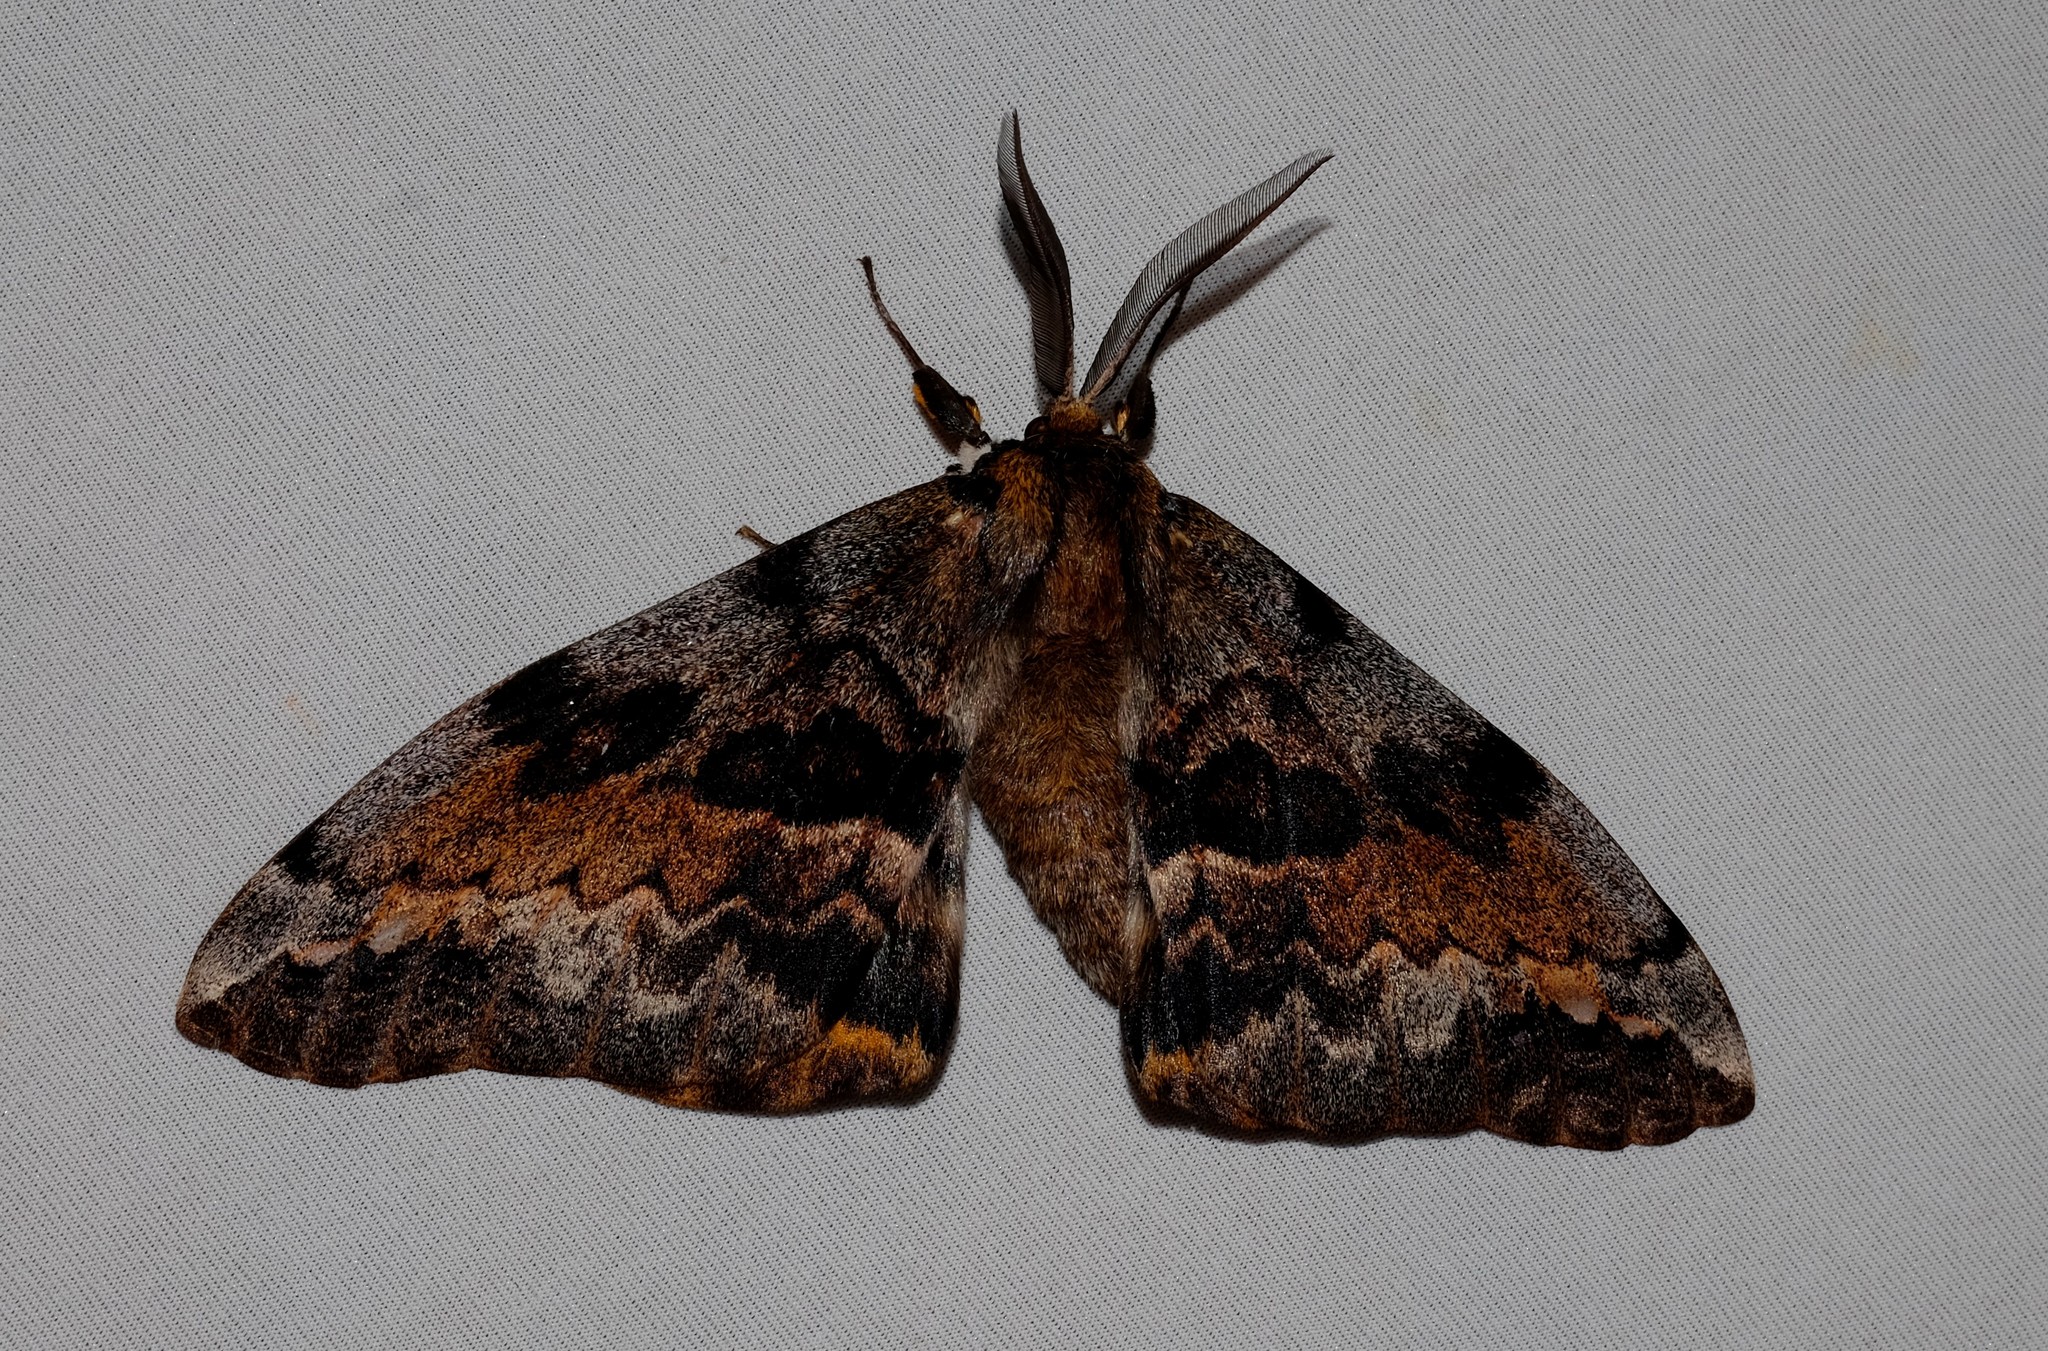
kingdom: Animalia
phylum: Arthropoda
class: Insecta
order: Lepidoptera
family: Anthelidae
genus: Chelepteryx
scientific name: Chelepteryx collesi
